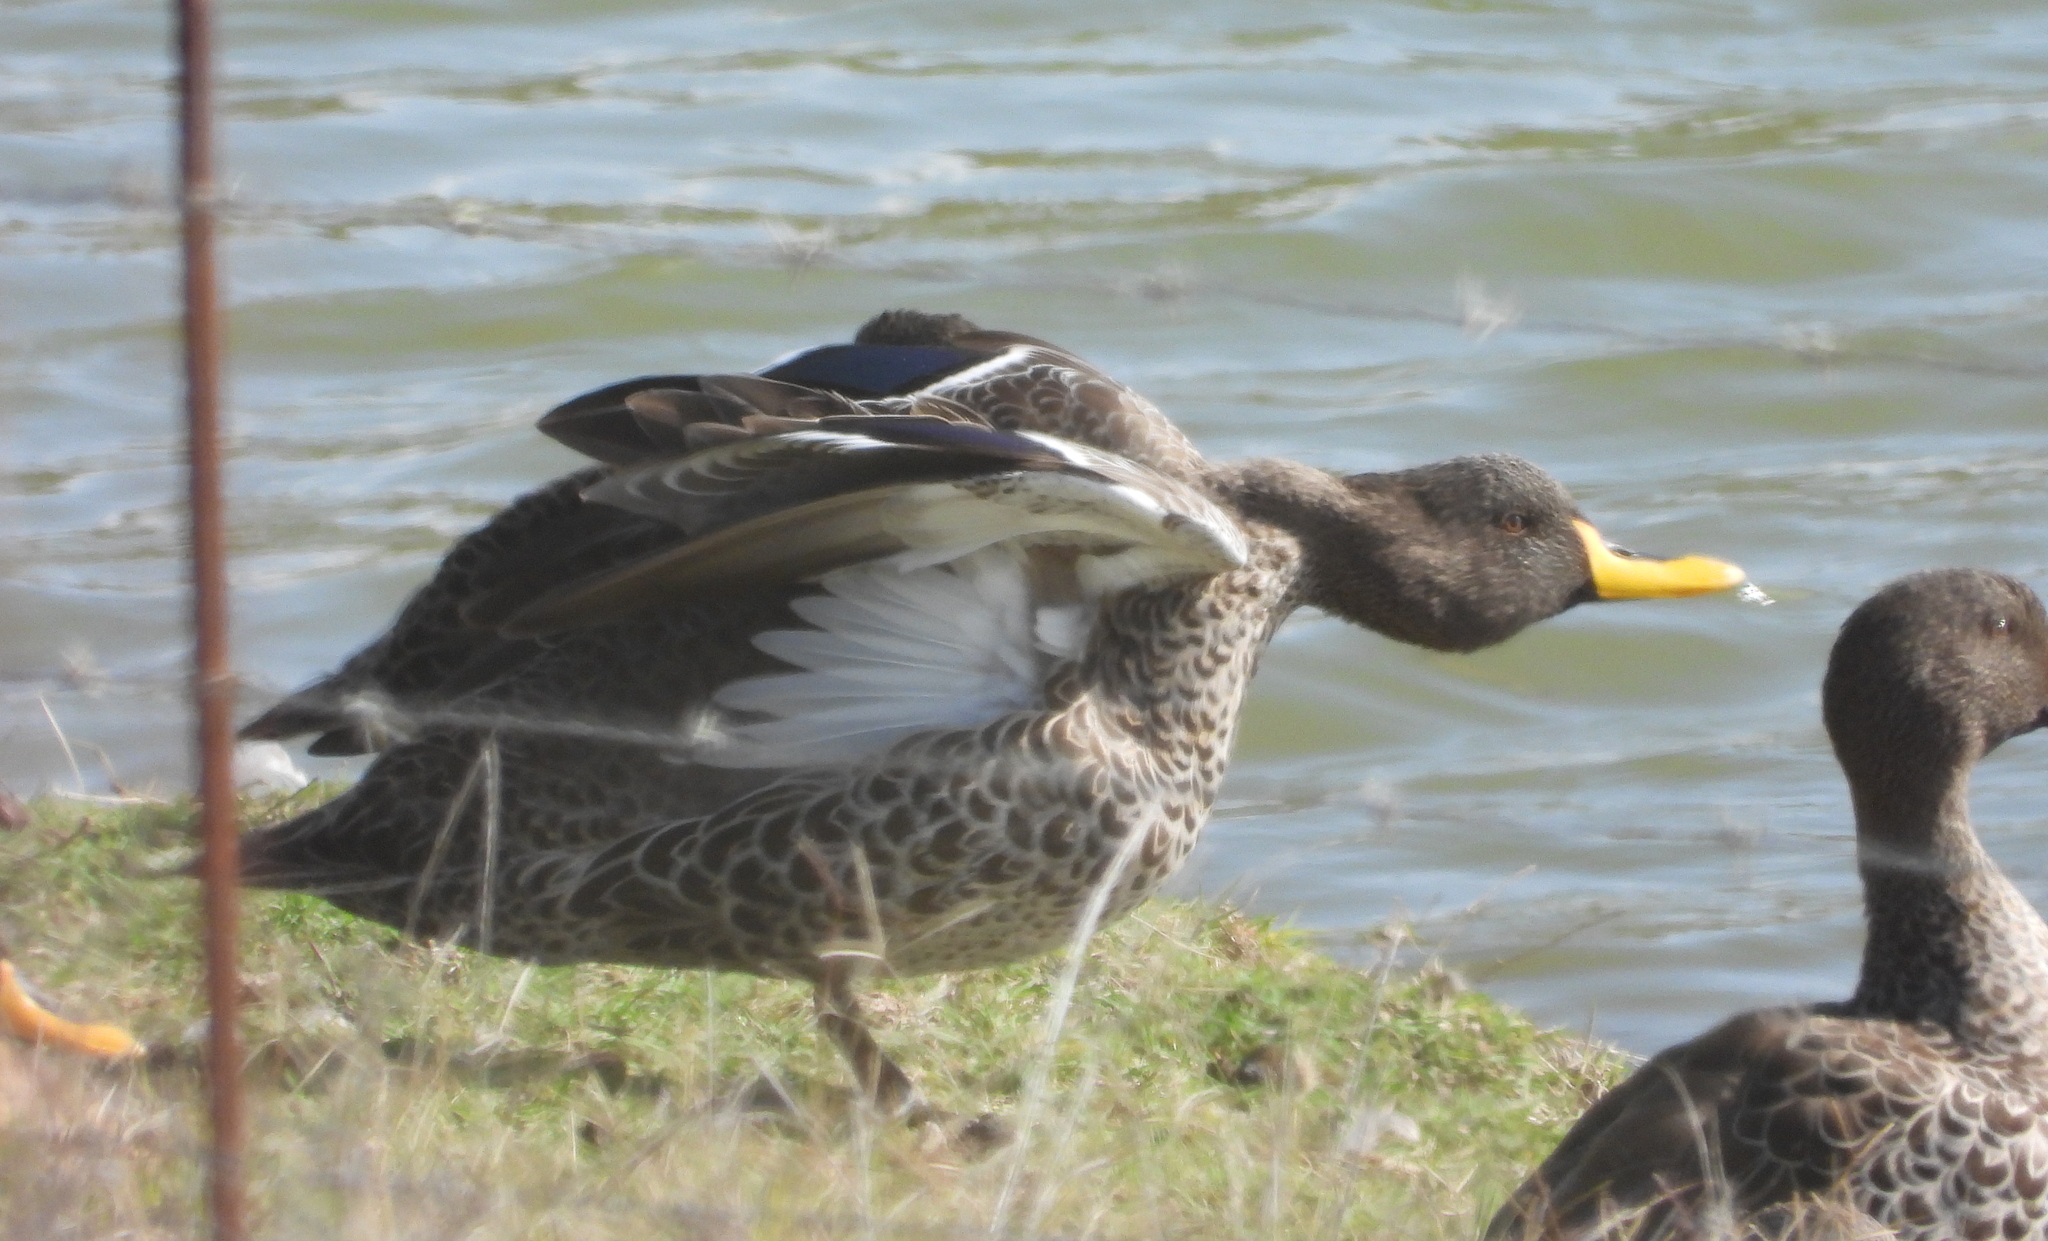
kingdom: Animalia
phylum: Chordata
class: Aves
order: Anseriformes
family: Anatidae
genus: Anas
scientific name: Anas undulata
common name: Yellow-billed duck
